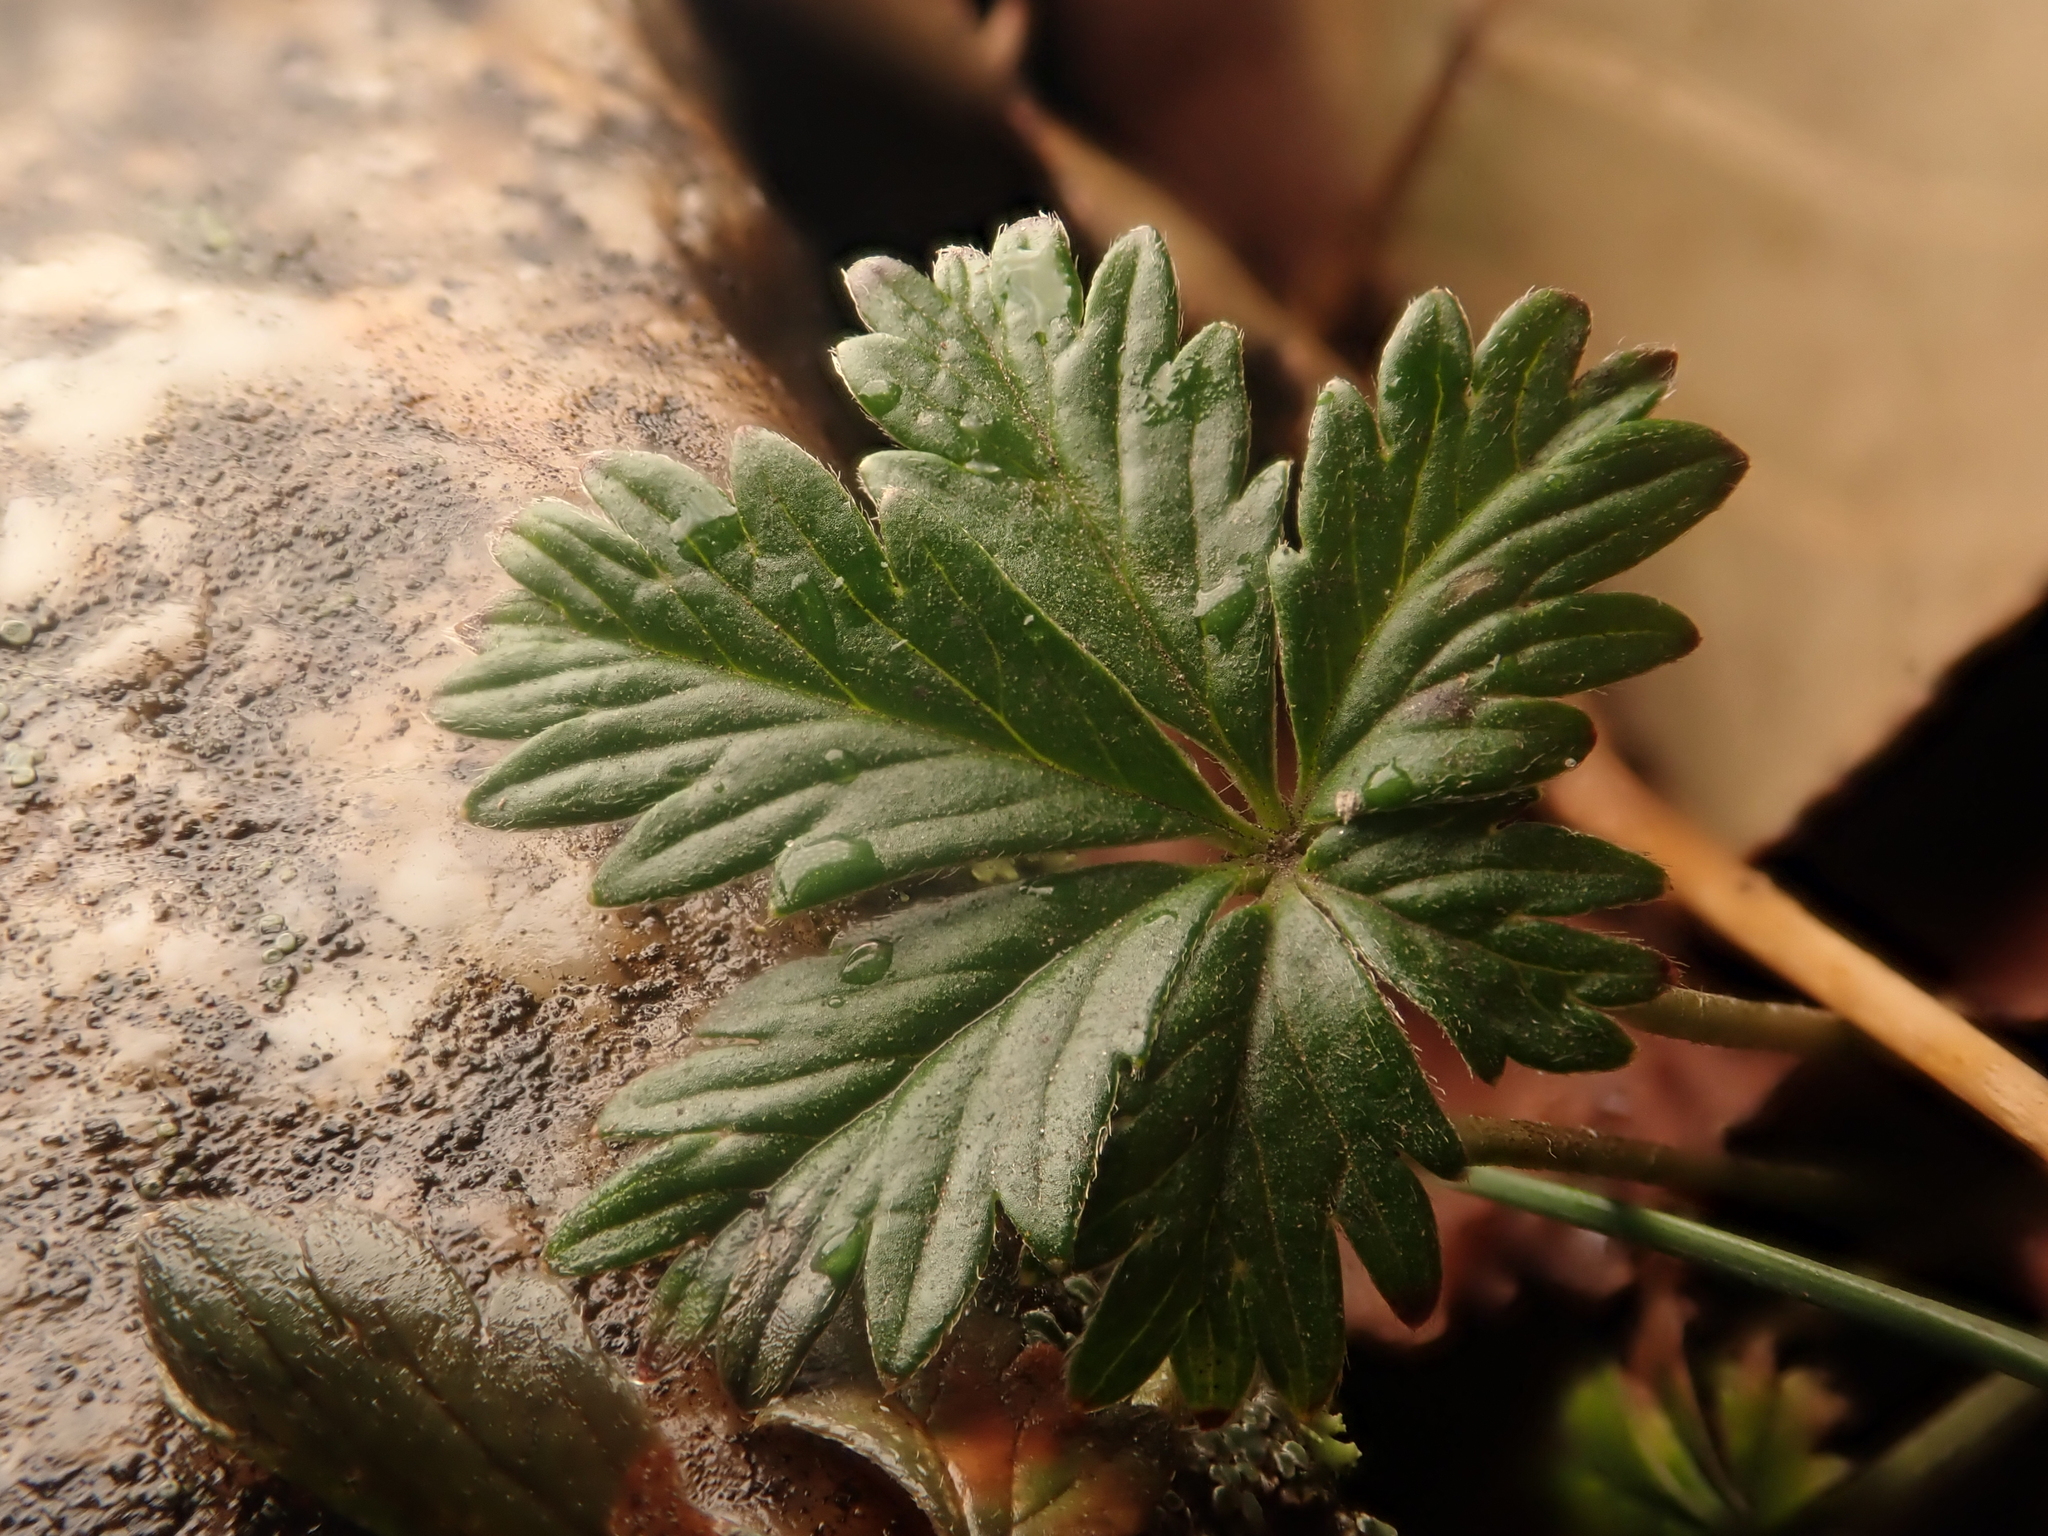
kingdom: Plantae
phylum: Tracheophyta
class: Magnoliopsida
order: Rosales
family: Rosaceae
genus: Potentilla
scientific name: Potentilla argentea
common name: Hoary cinquefoil
